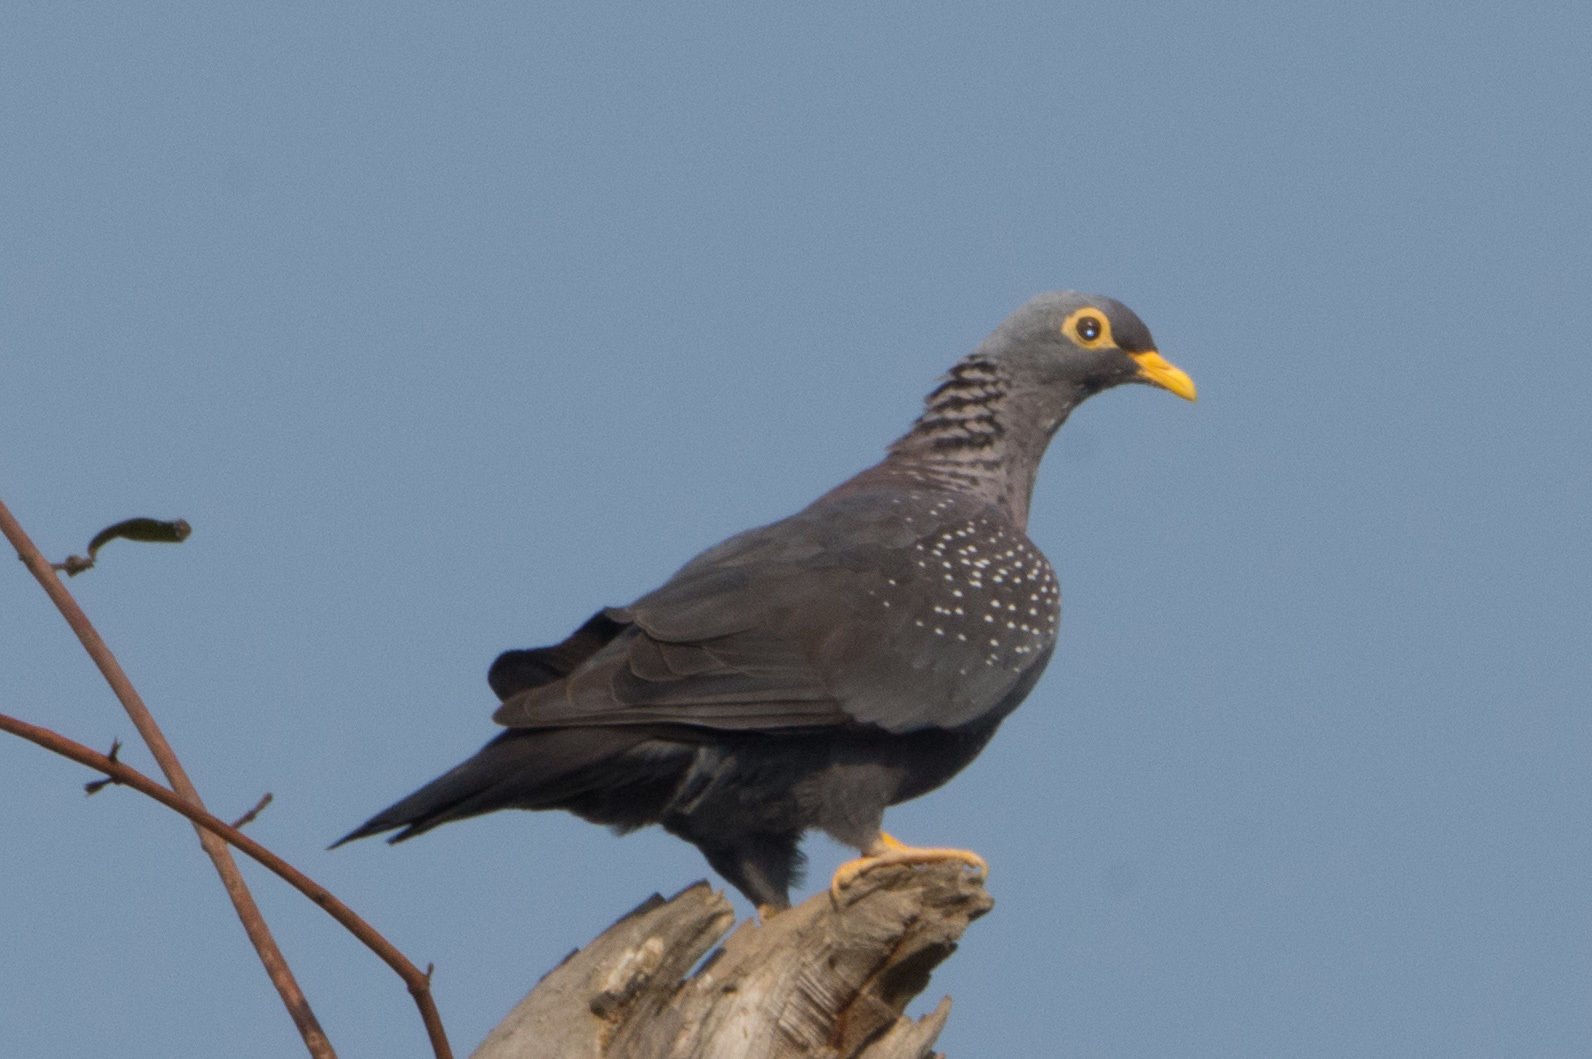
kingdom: Animalia
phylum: Chordata
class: Aves
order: Columbiformes
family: Columbidae
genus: Columba
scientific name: Columba arquatrix
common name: African olive pigeon
